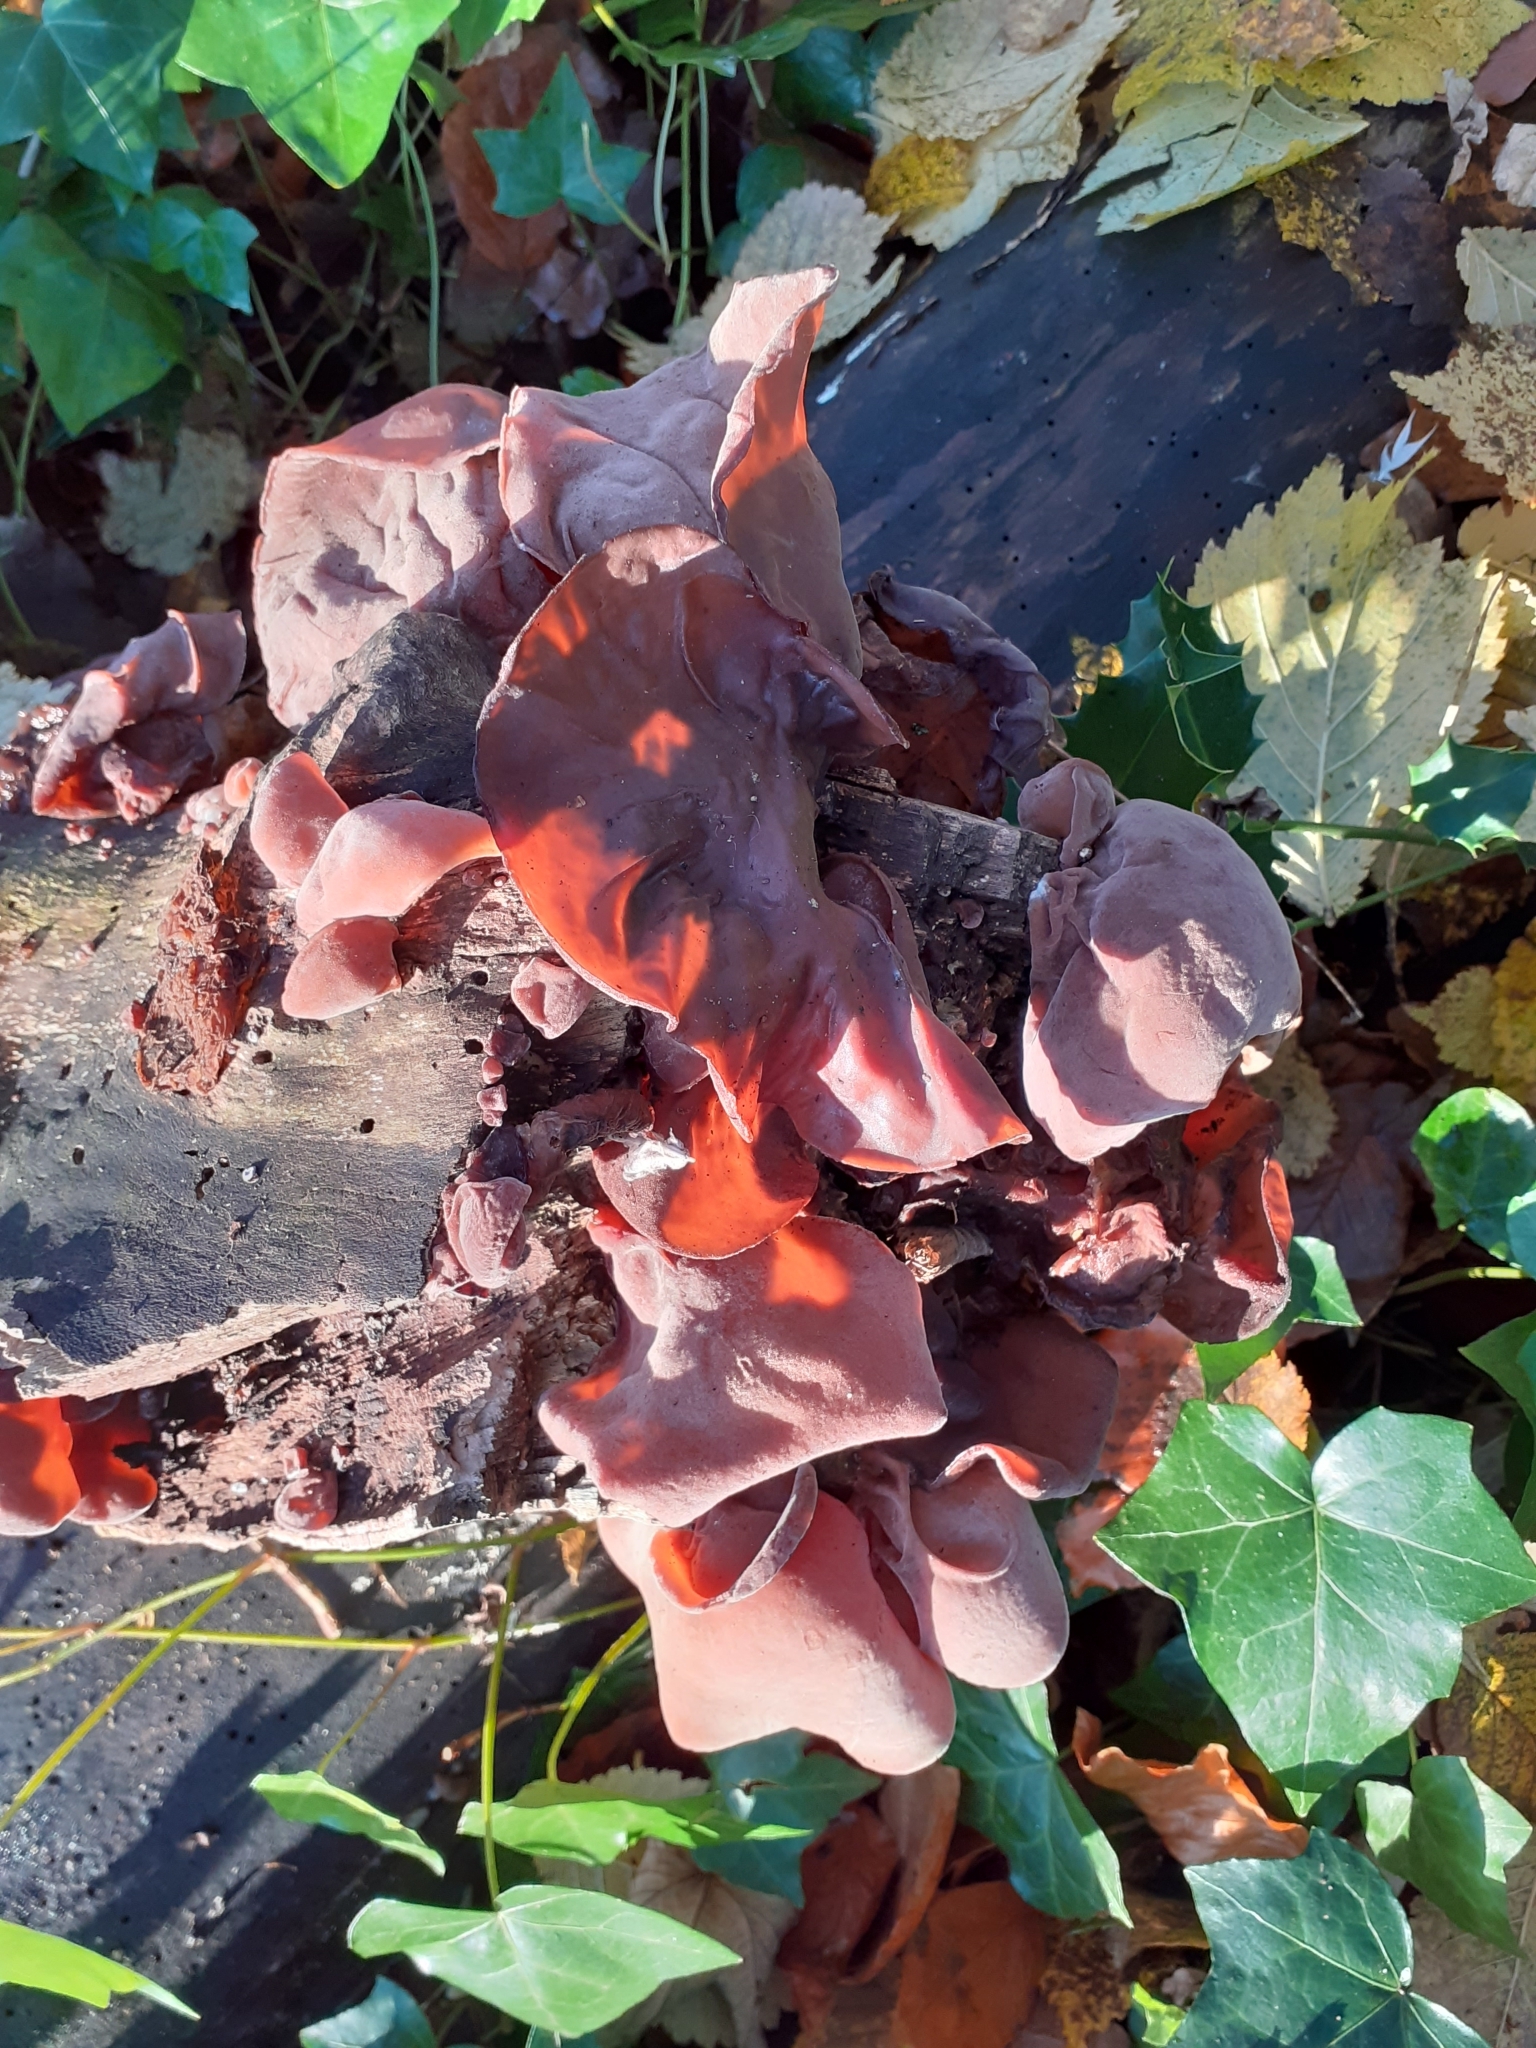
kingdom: Fungi
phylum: Basidiomycota
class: Agaricomycetes
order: Auriculariales
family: Auriculariaceae
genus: Auricularia
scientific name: Auricularia auricula-judae
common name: Jelly ear
